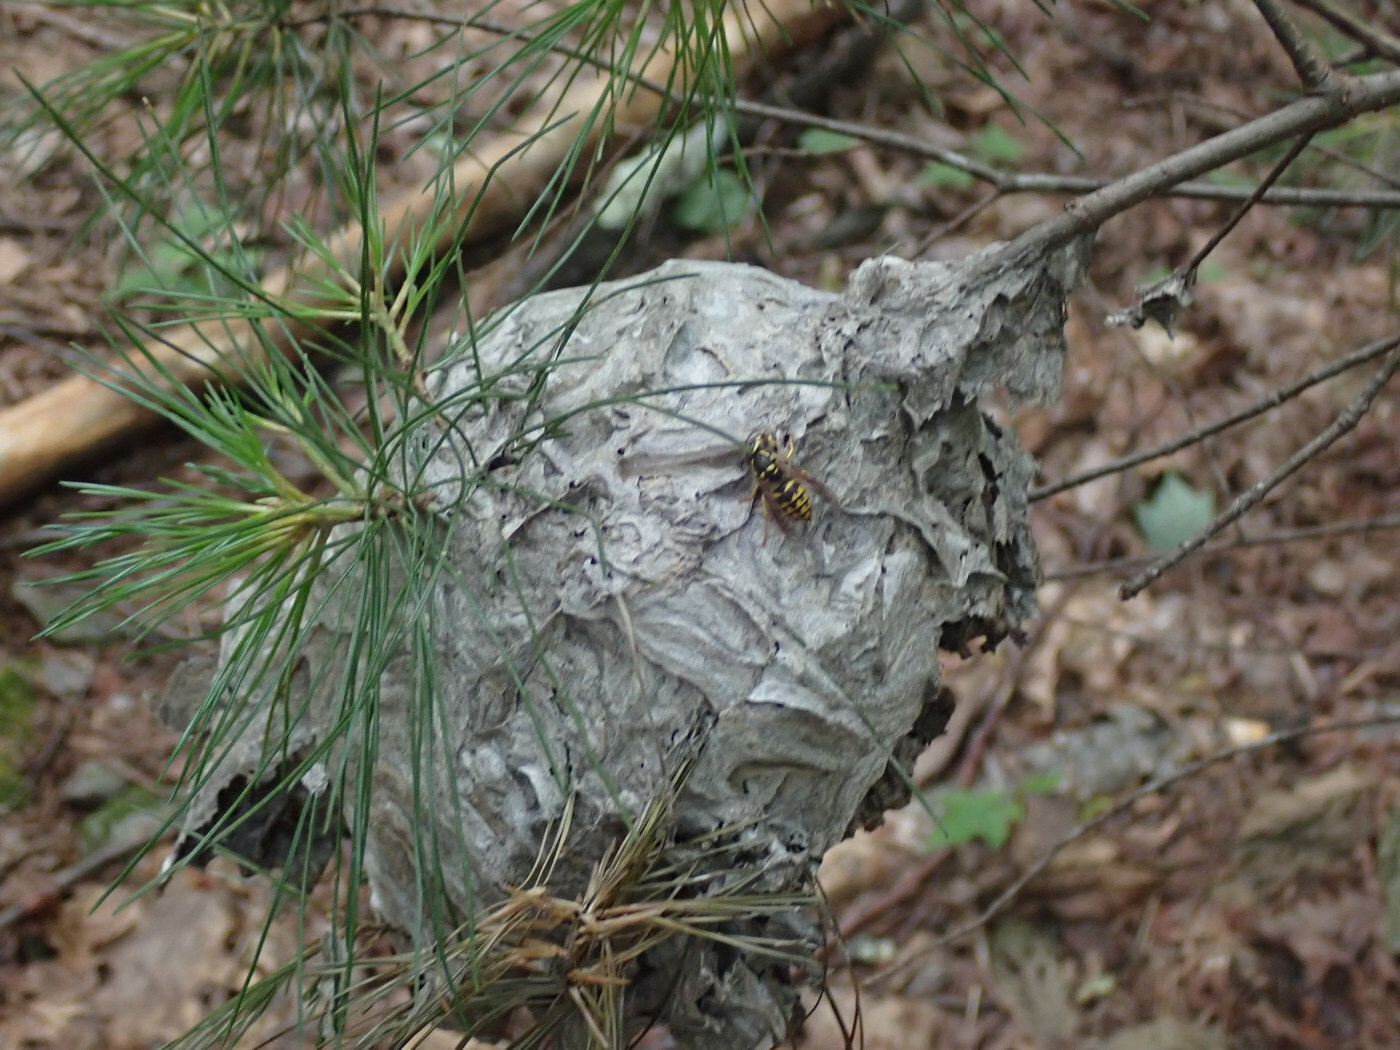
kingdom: Animalia
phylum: Arthropoda
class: Insecta
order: Hymenoptera
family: Vespidae
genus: Dolichovespula
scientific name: Dolichovespula arenaria
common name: Aerial yellowjacket
